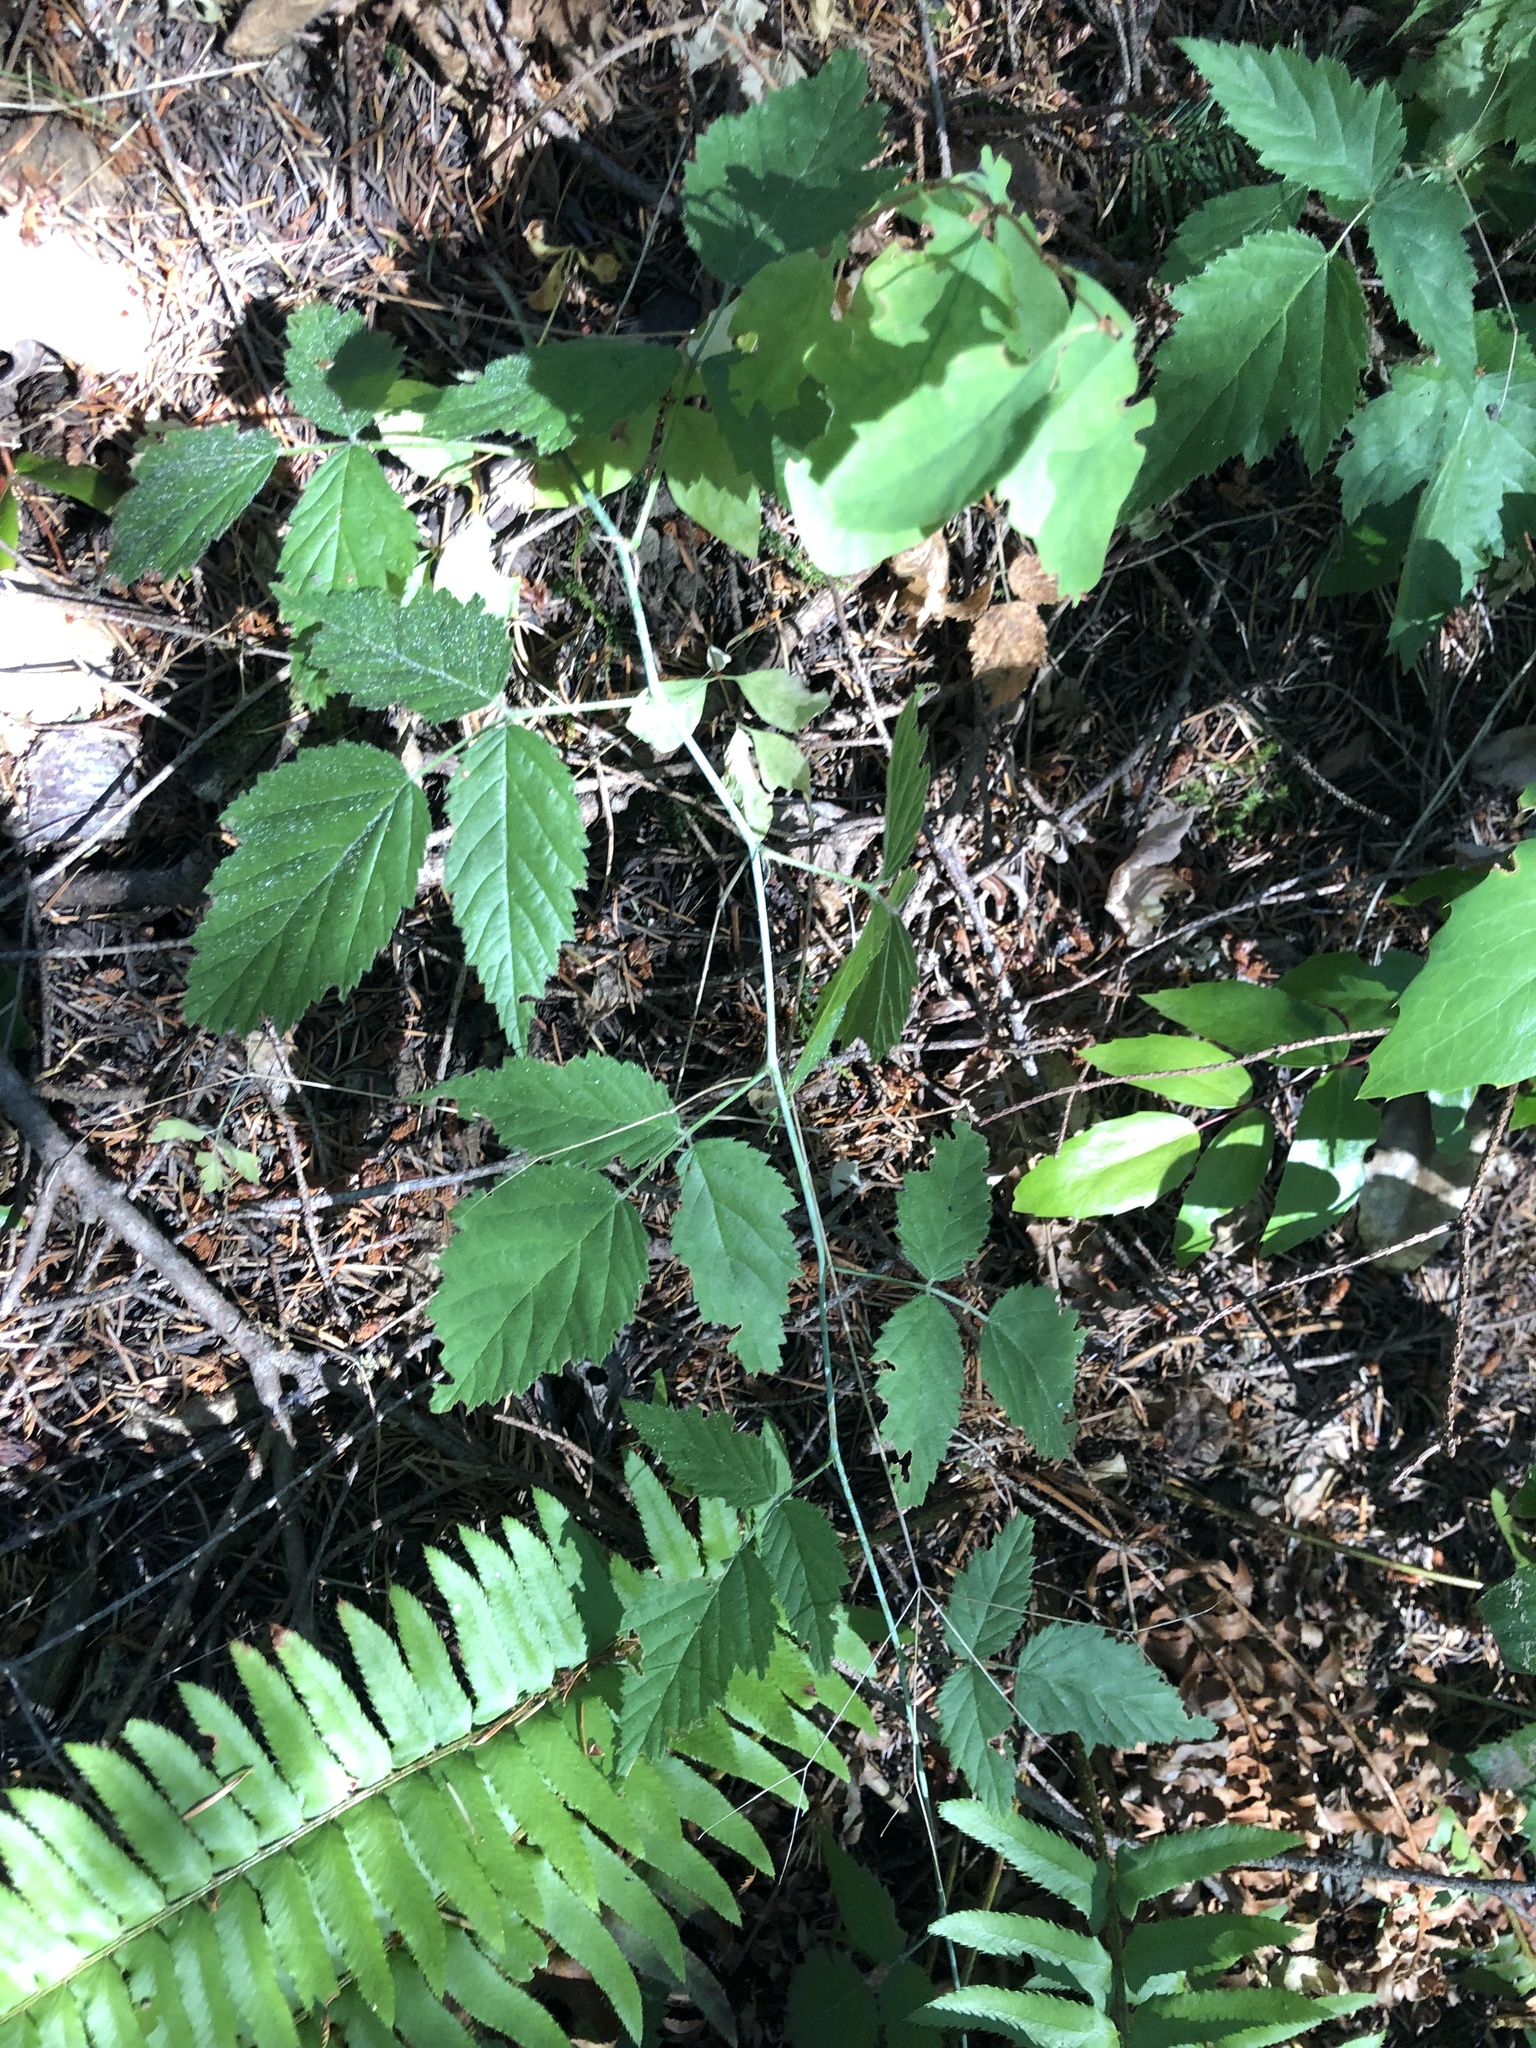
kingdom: Plantae
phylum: Tracheophyta
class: Magnoliopsida
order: Rosales
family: Rosaceae
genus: Rubus
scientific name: Rubus ursinus
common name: Pacific blackberry
